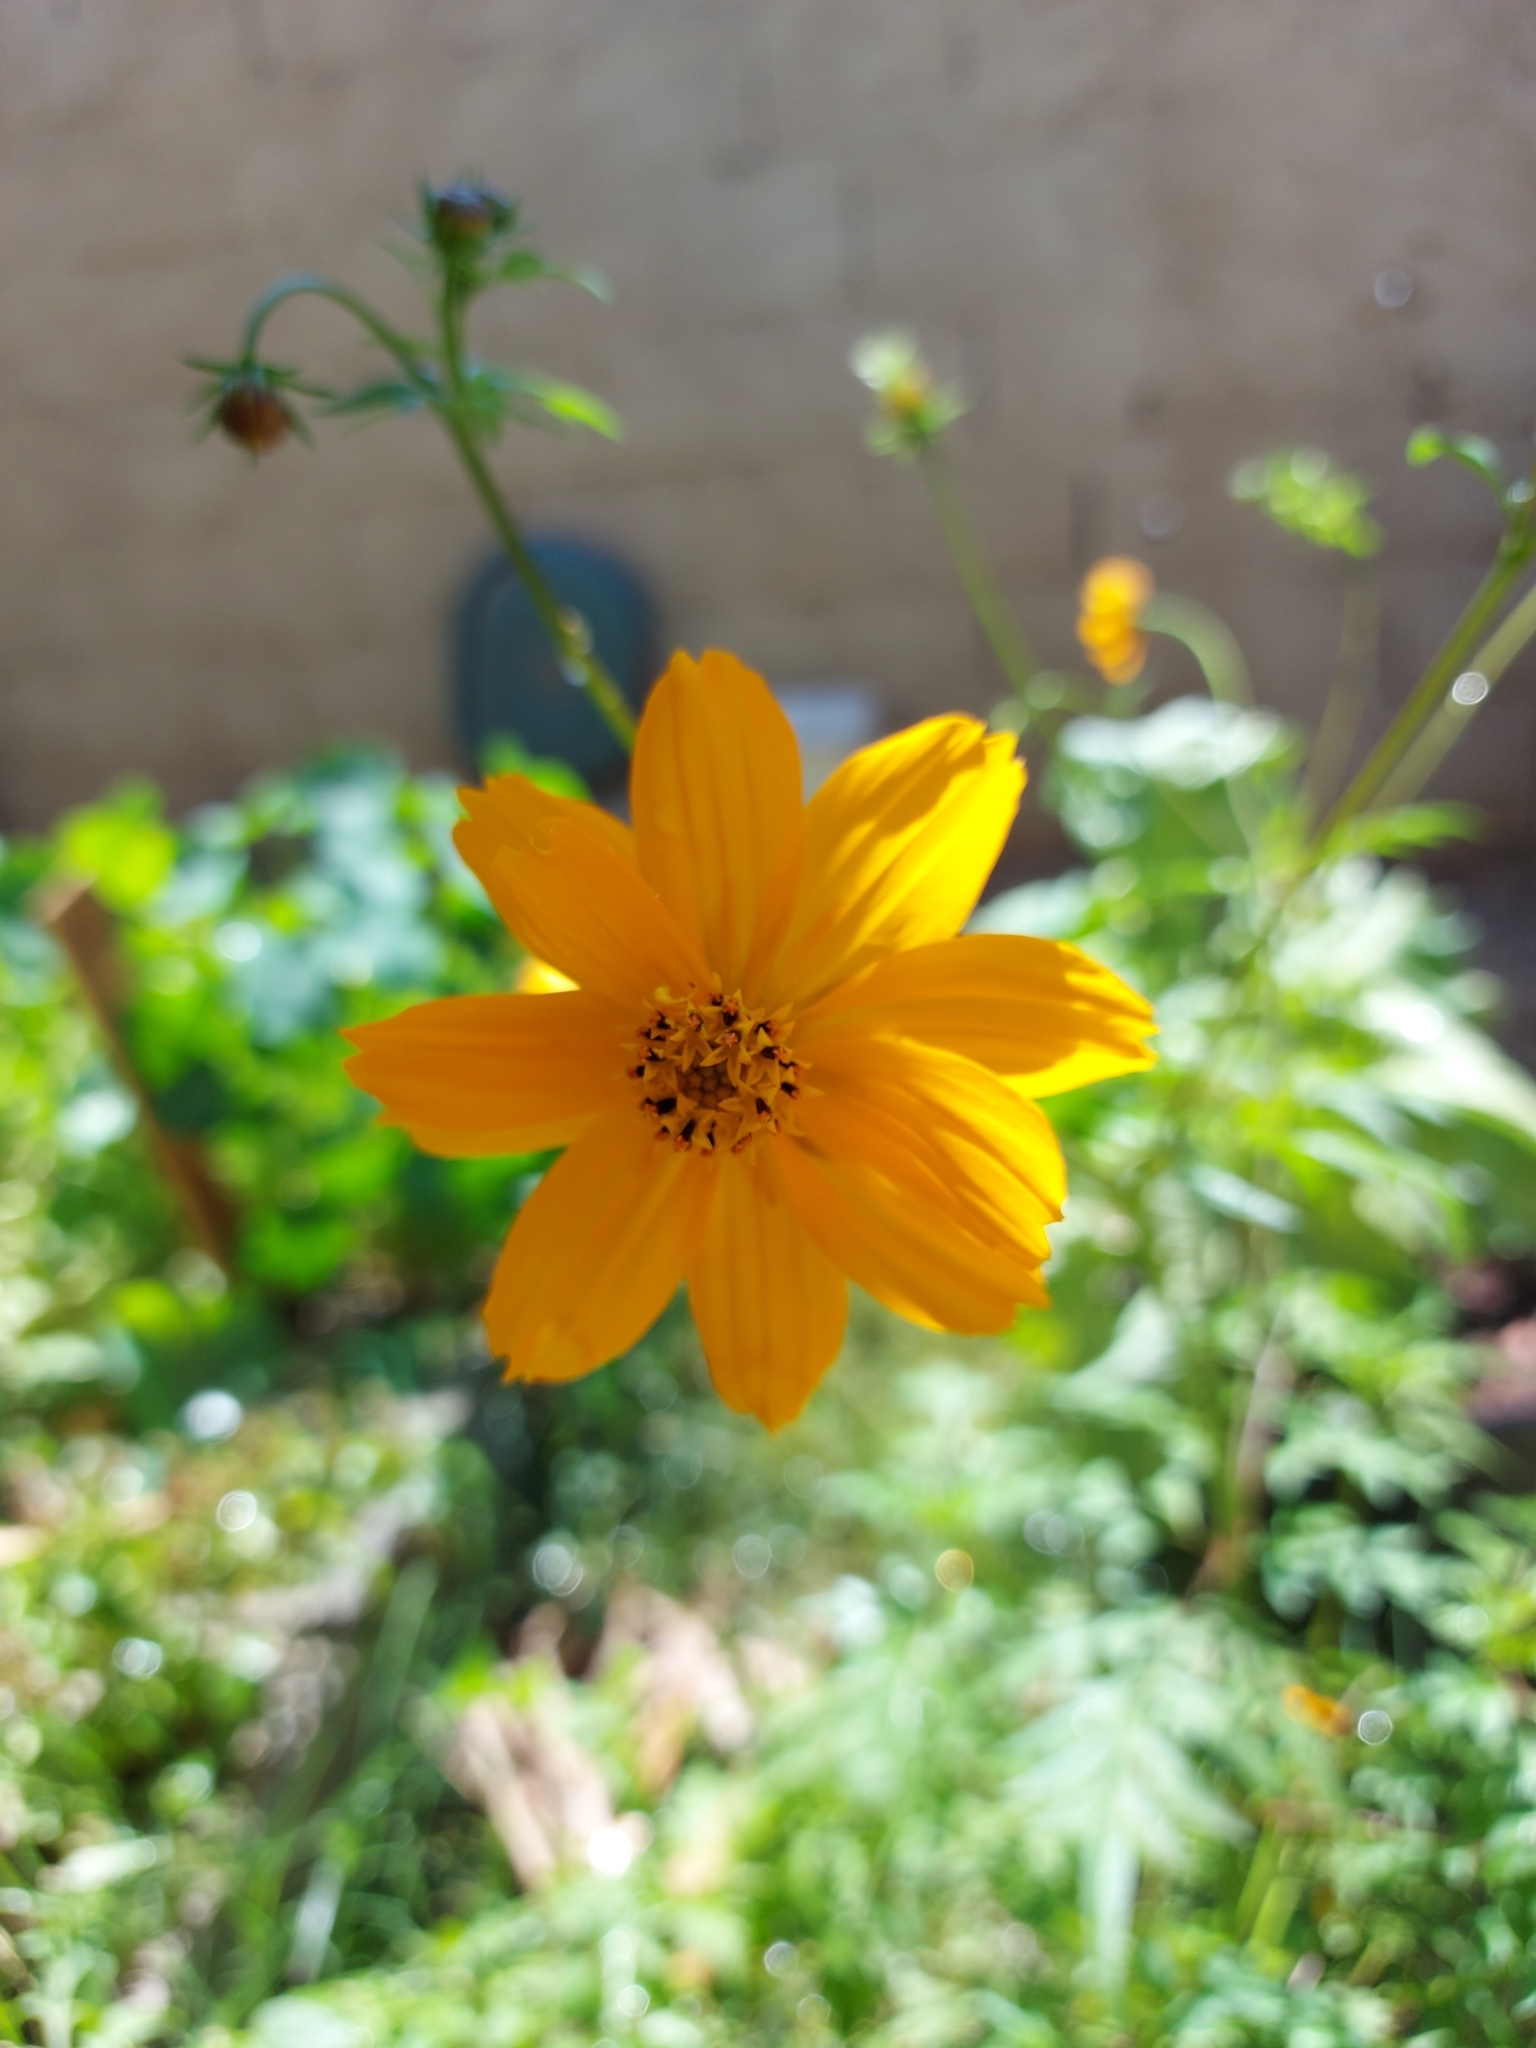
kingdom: Plantae
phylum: Tracheophyta
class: Magnoliopsida
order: Asterales
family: Asteraceae
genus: Cosmos
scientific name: Cosmos sulphureus
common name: Sulphur cosmos
